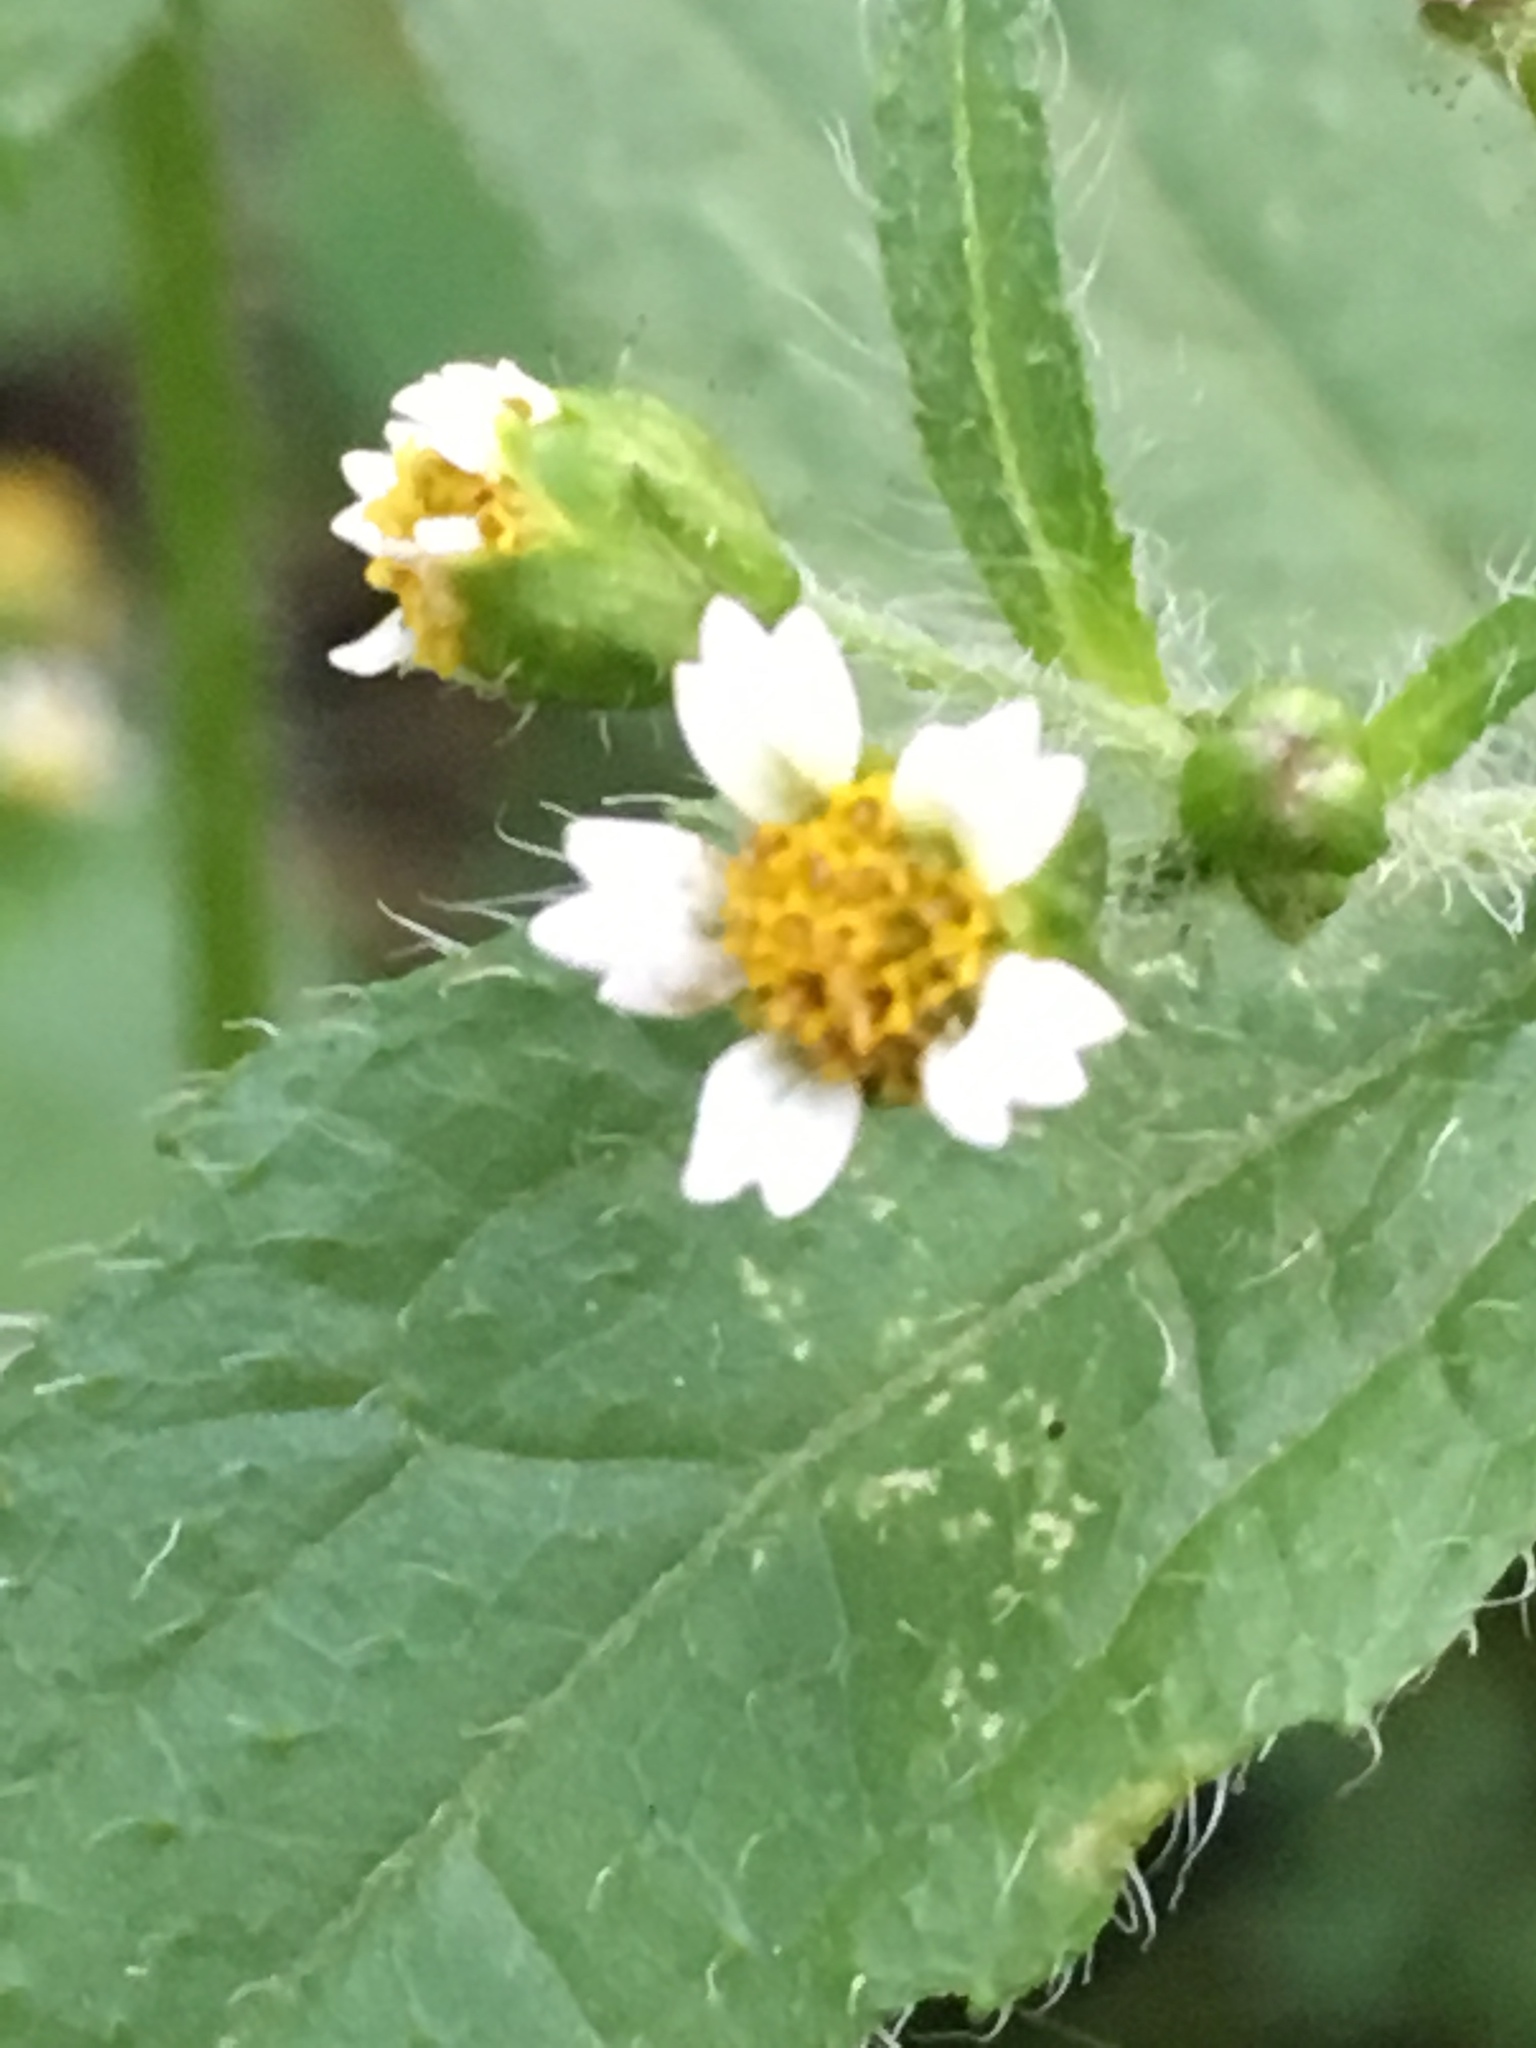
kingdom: Plantae
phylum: Tracheophyta
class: Magnoliopsida
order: Asterales
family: Asteraceae
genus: Galinsoga
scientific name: Galinsoga quadriradiata
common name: Shaggy soldier
